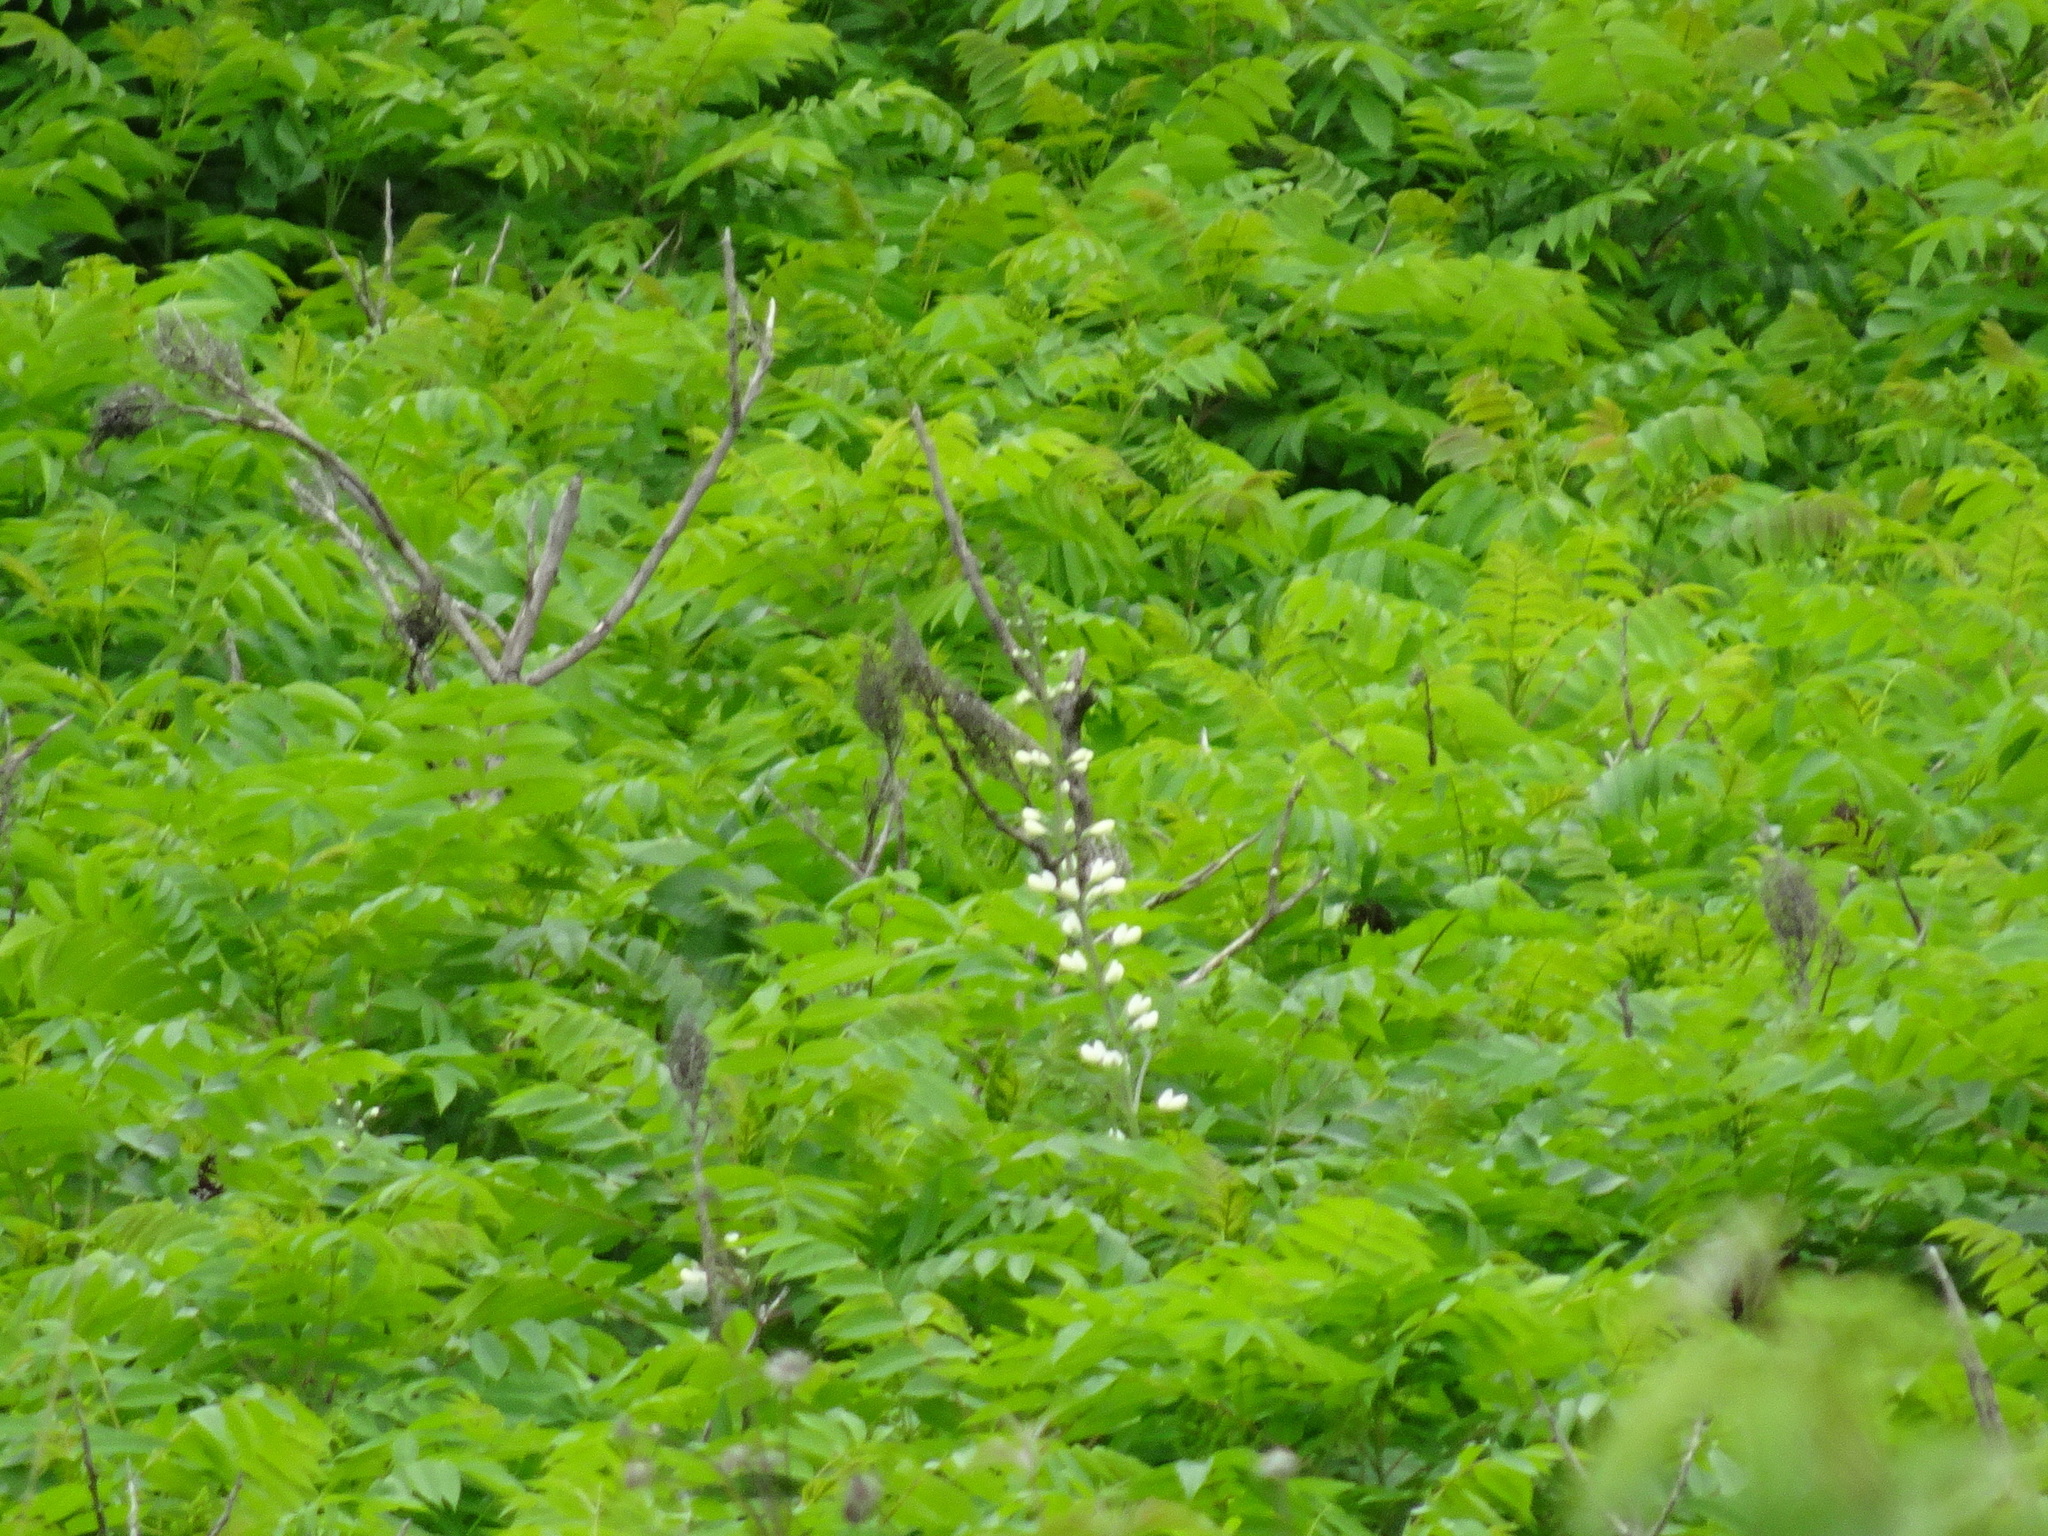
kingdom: Plantae
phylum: Tracheophyta
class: Magnoliopsida
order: Fabales
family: Fabaceae
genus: Baptisia
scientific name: Baptisia alba
